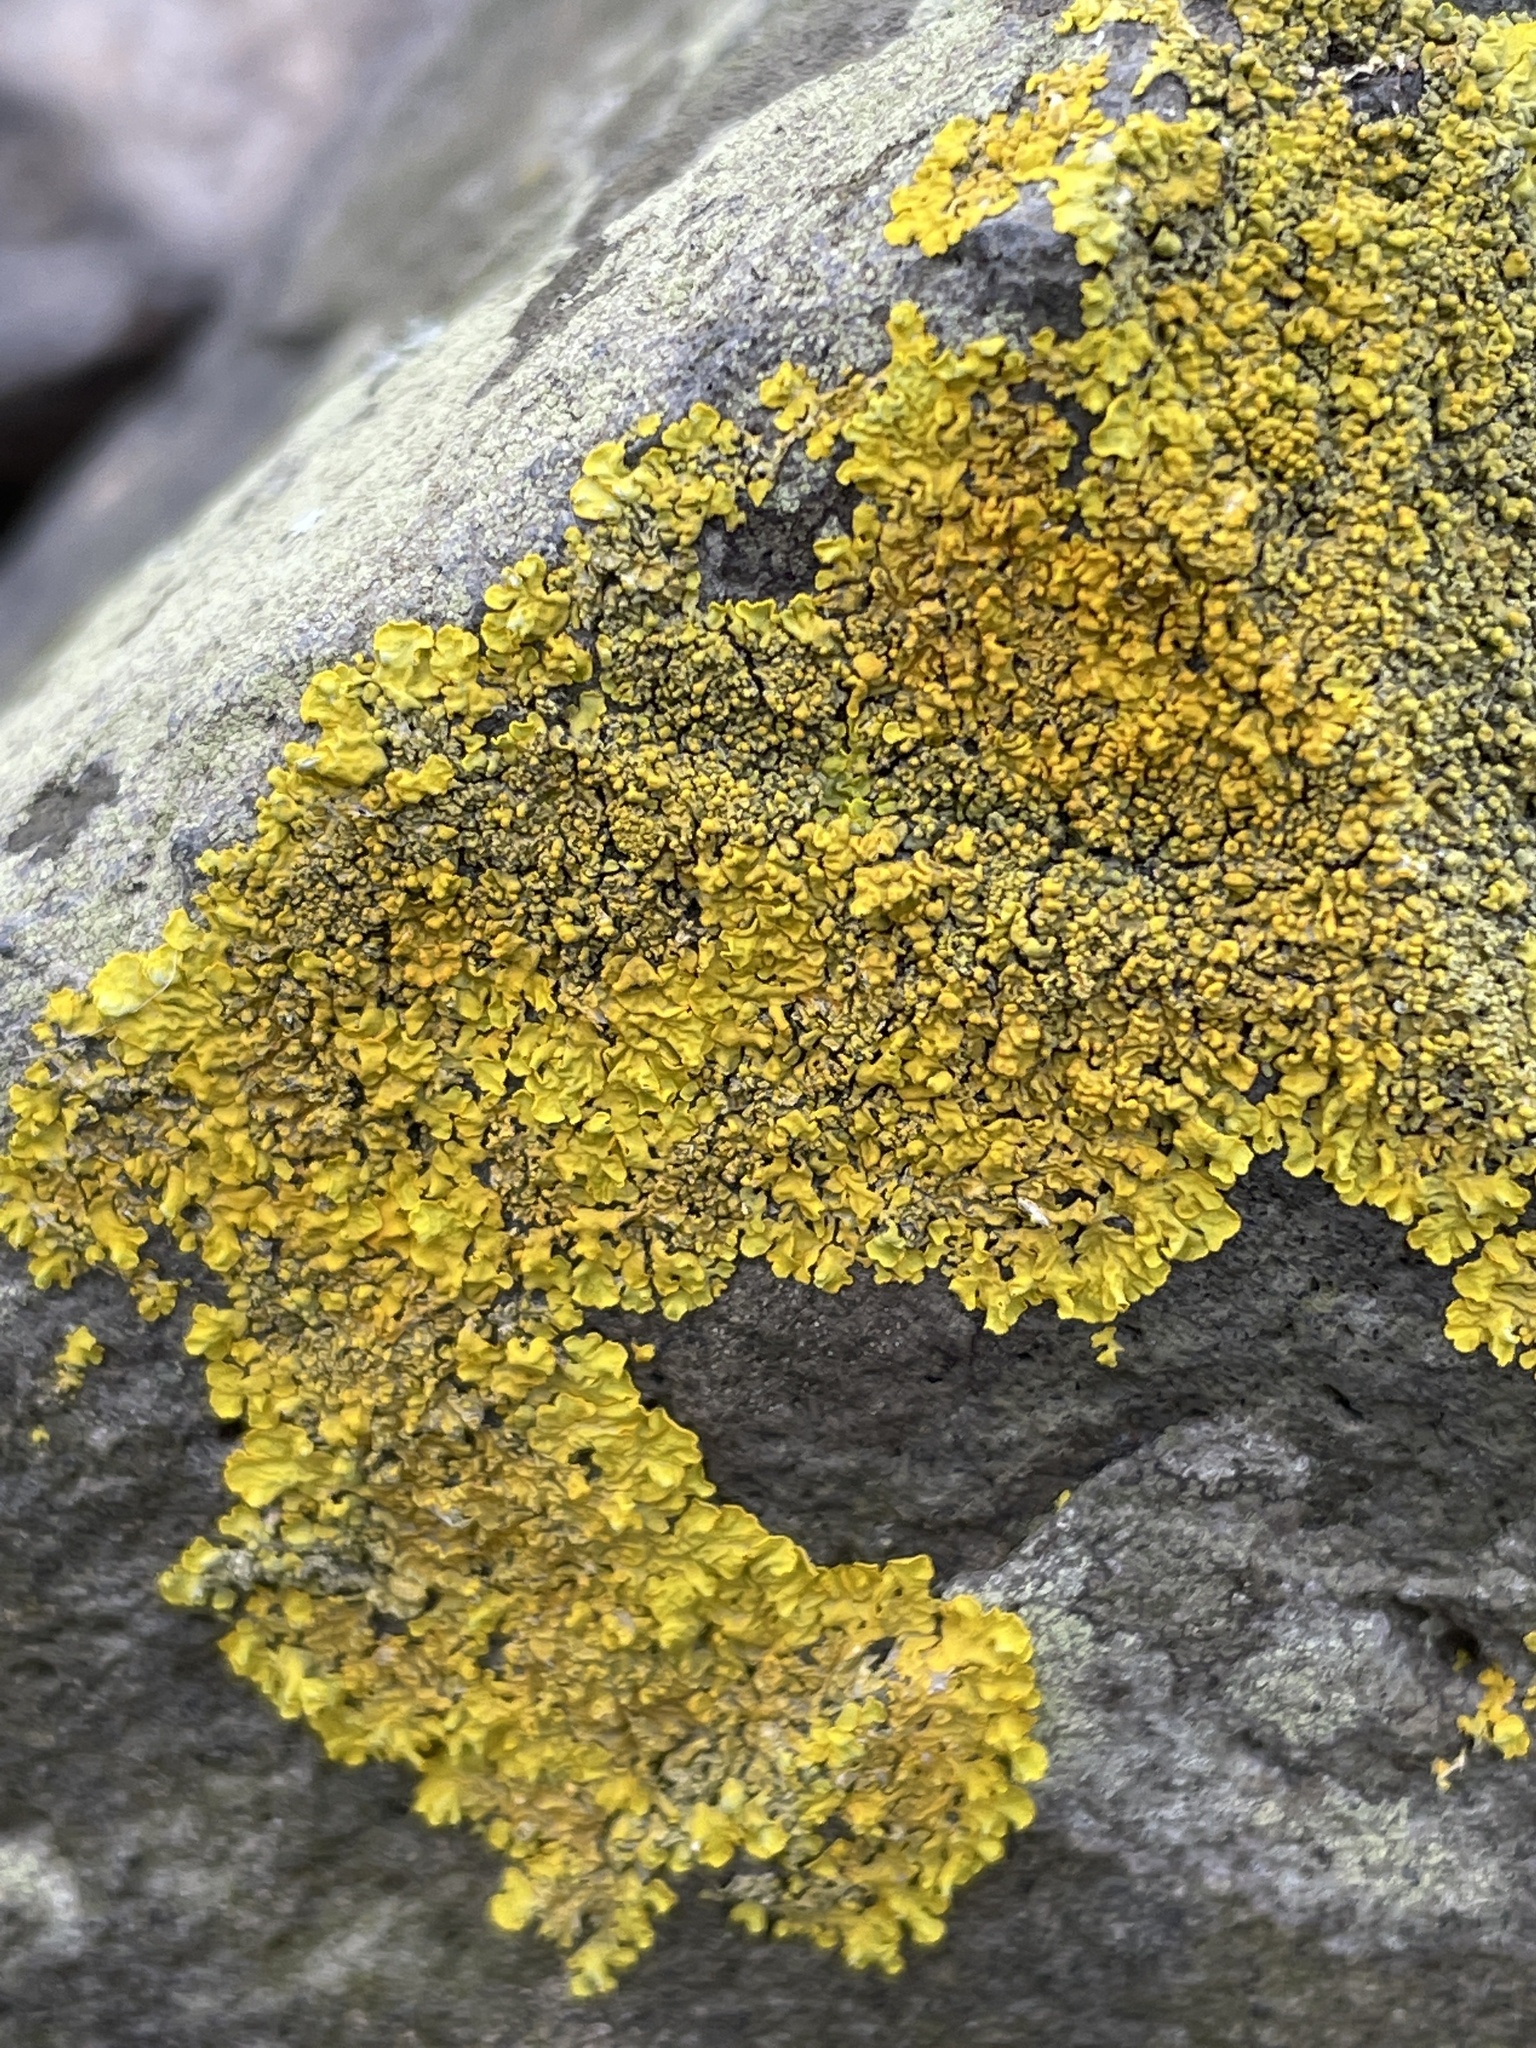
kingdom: Fungi
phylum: Ascomycota
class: Lecanoromycetes
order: Teloschistales
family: Teloschistaceae
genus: Xanthoria
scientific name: Xanthoria calcicola
